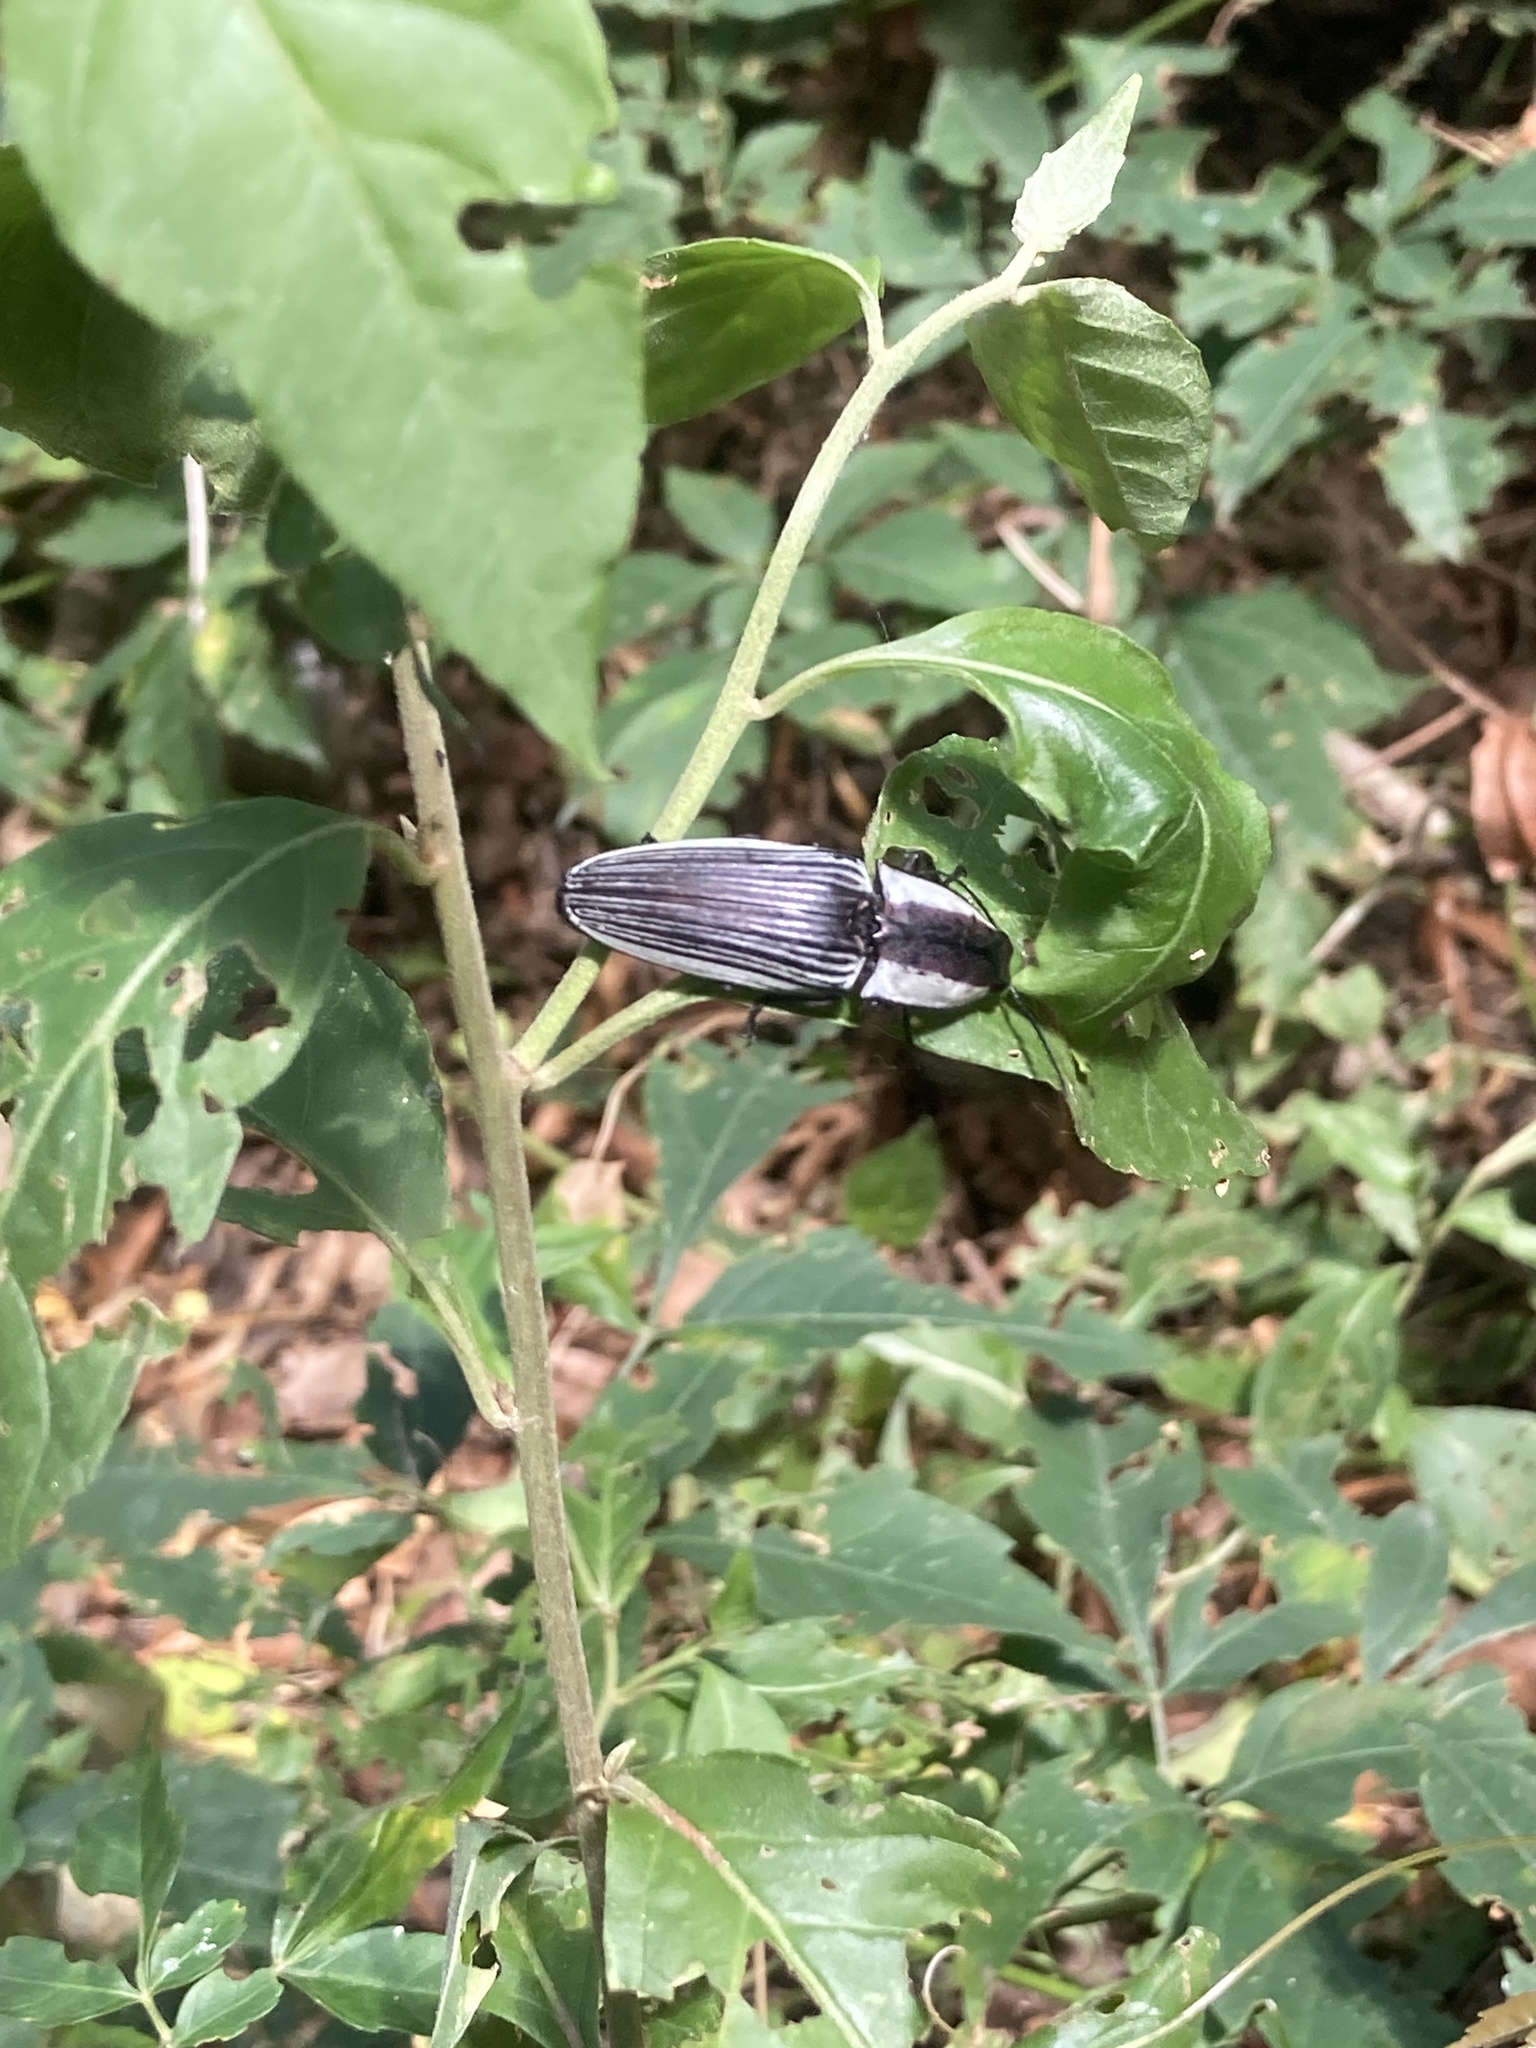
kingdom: Animalia
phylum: Arthropoda
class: Insecta
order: Coleoptera
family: Elateridae
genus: Chalcolepidius
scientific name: Chalcolepidius
